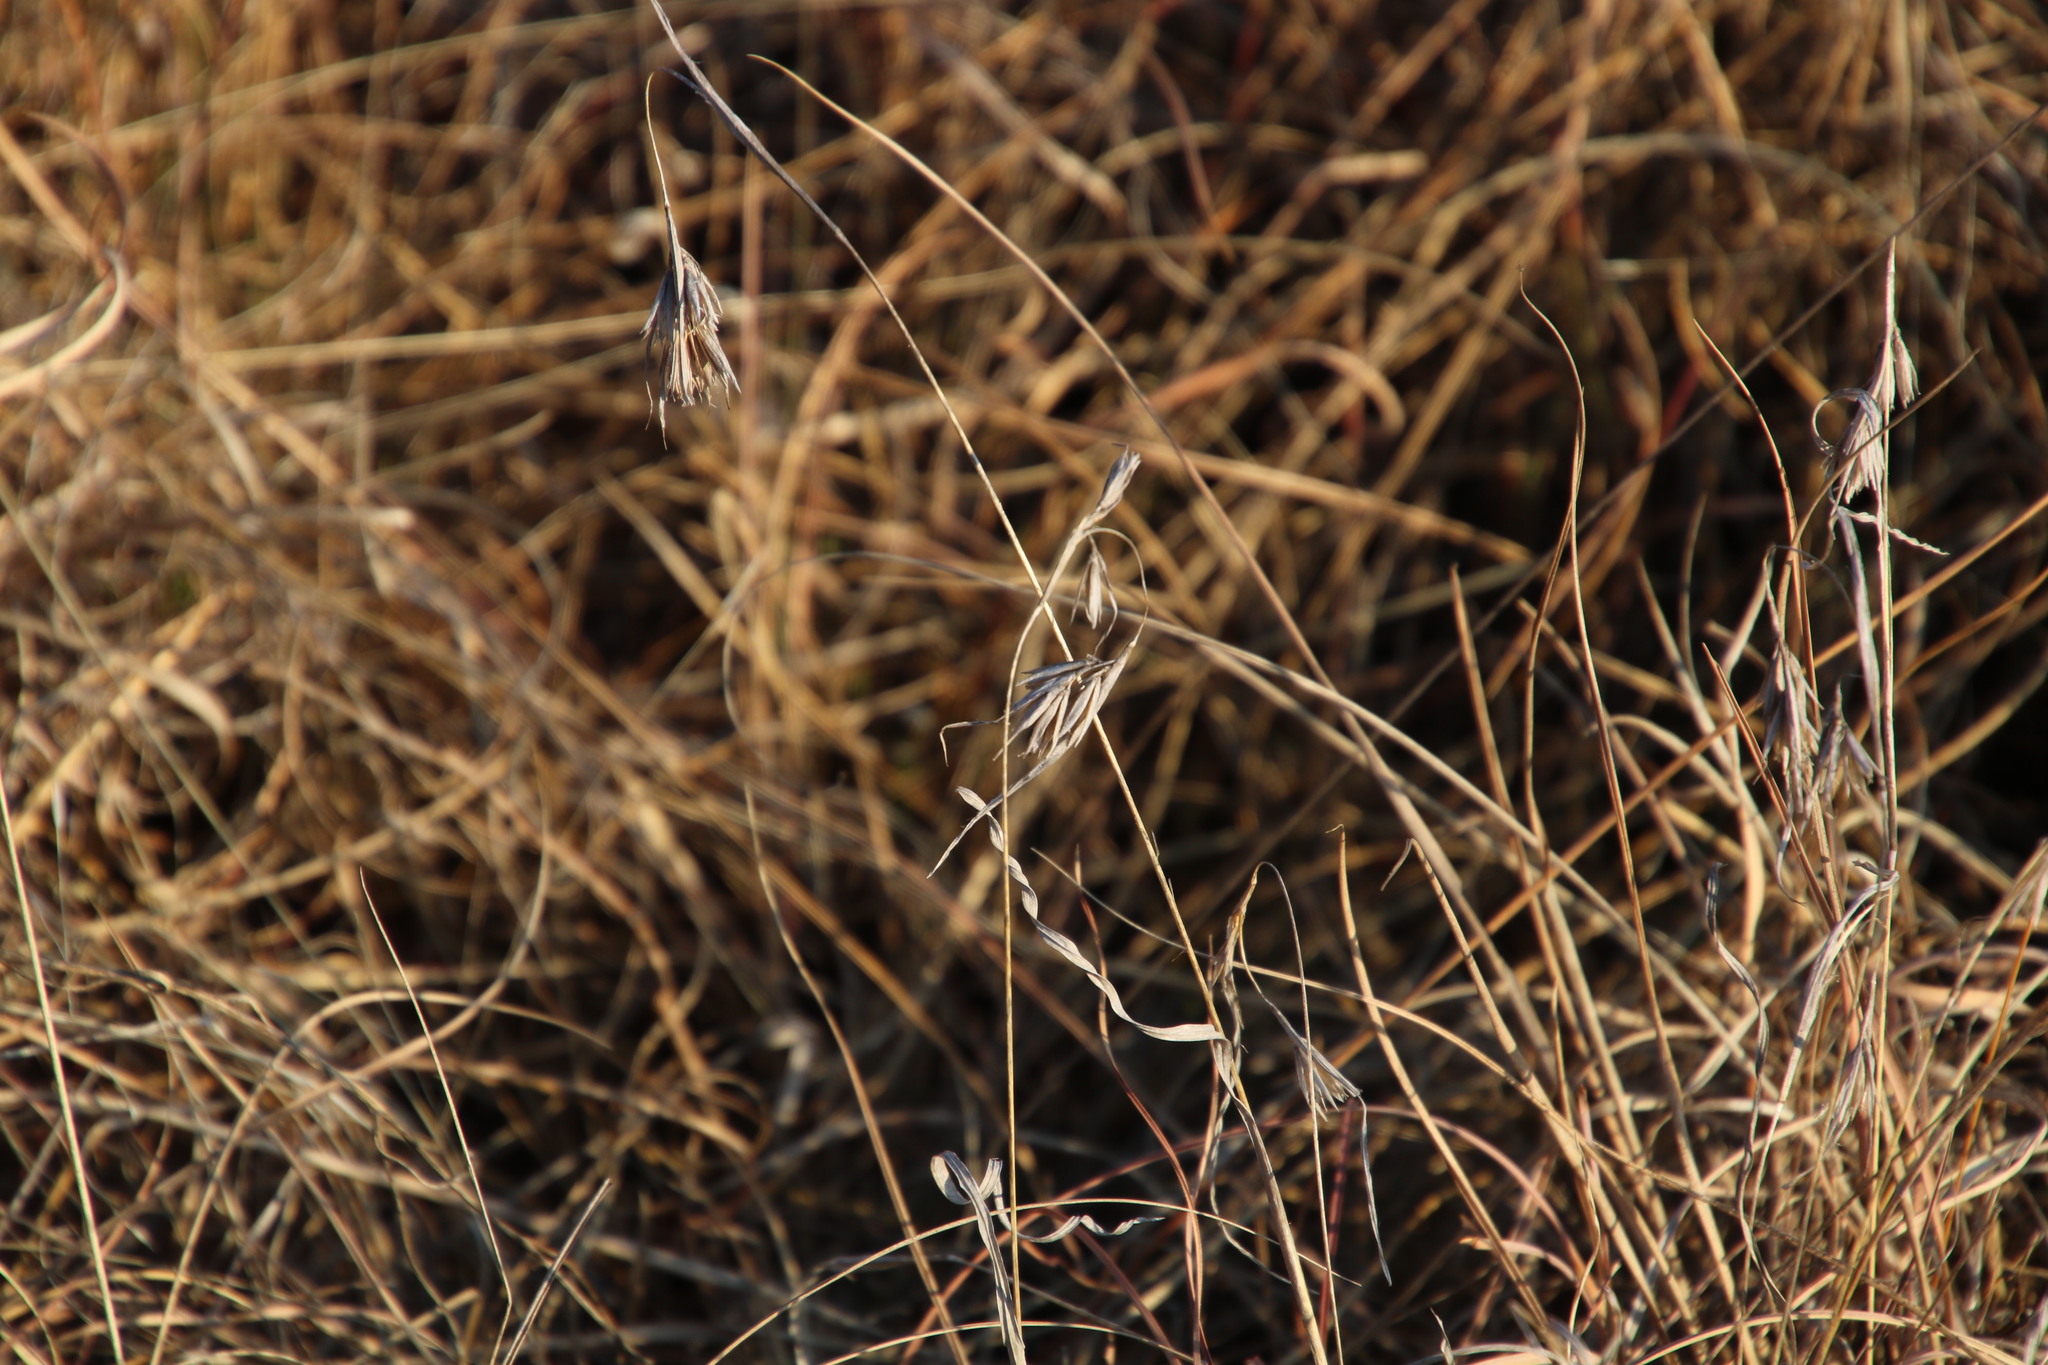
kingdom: Plantae
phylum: Tracheophyta
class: Liliopsida
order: Poales
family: Poaceae
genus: Themeda
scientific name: Themeda triandra
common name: Kangaroo grass
